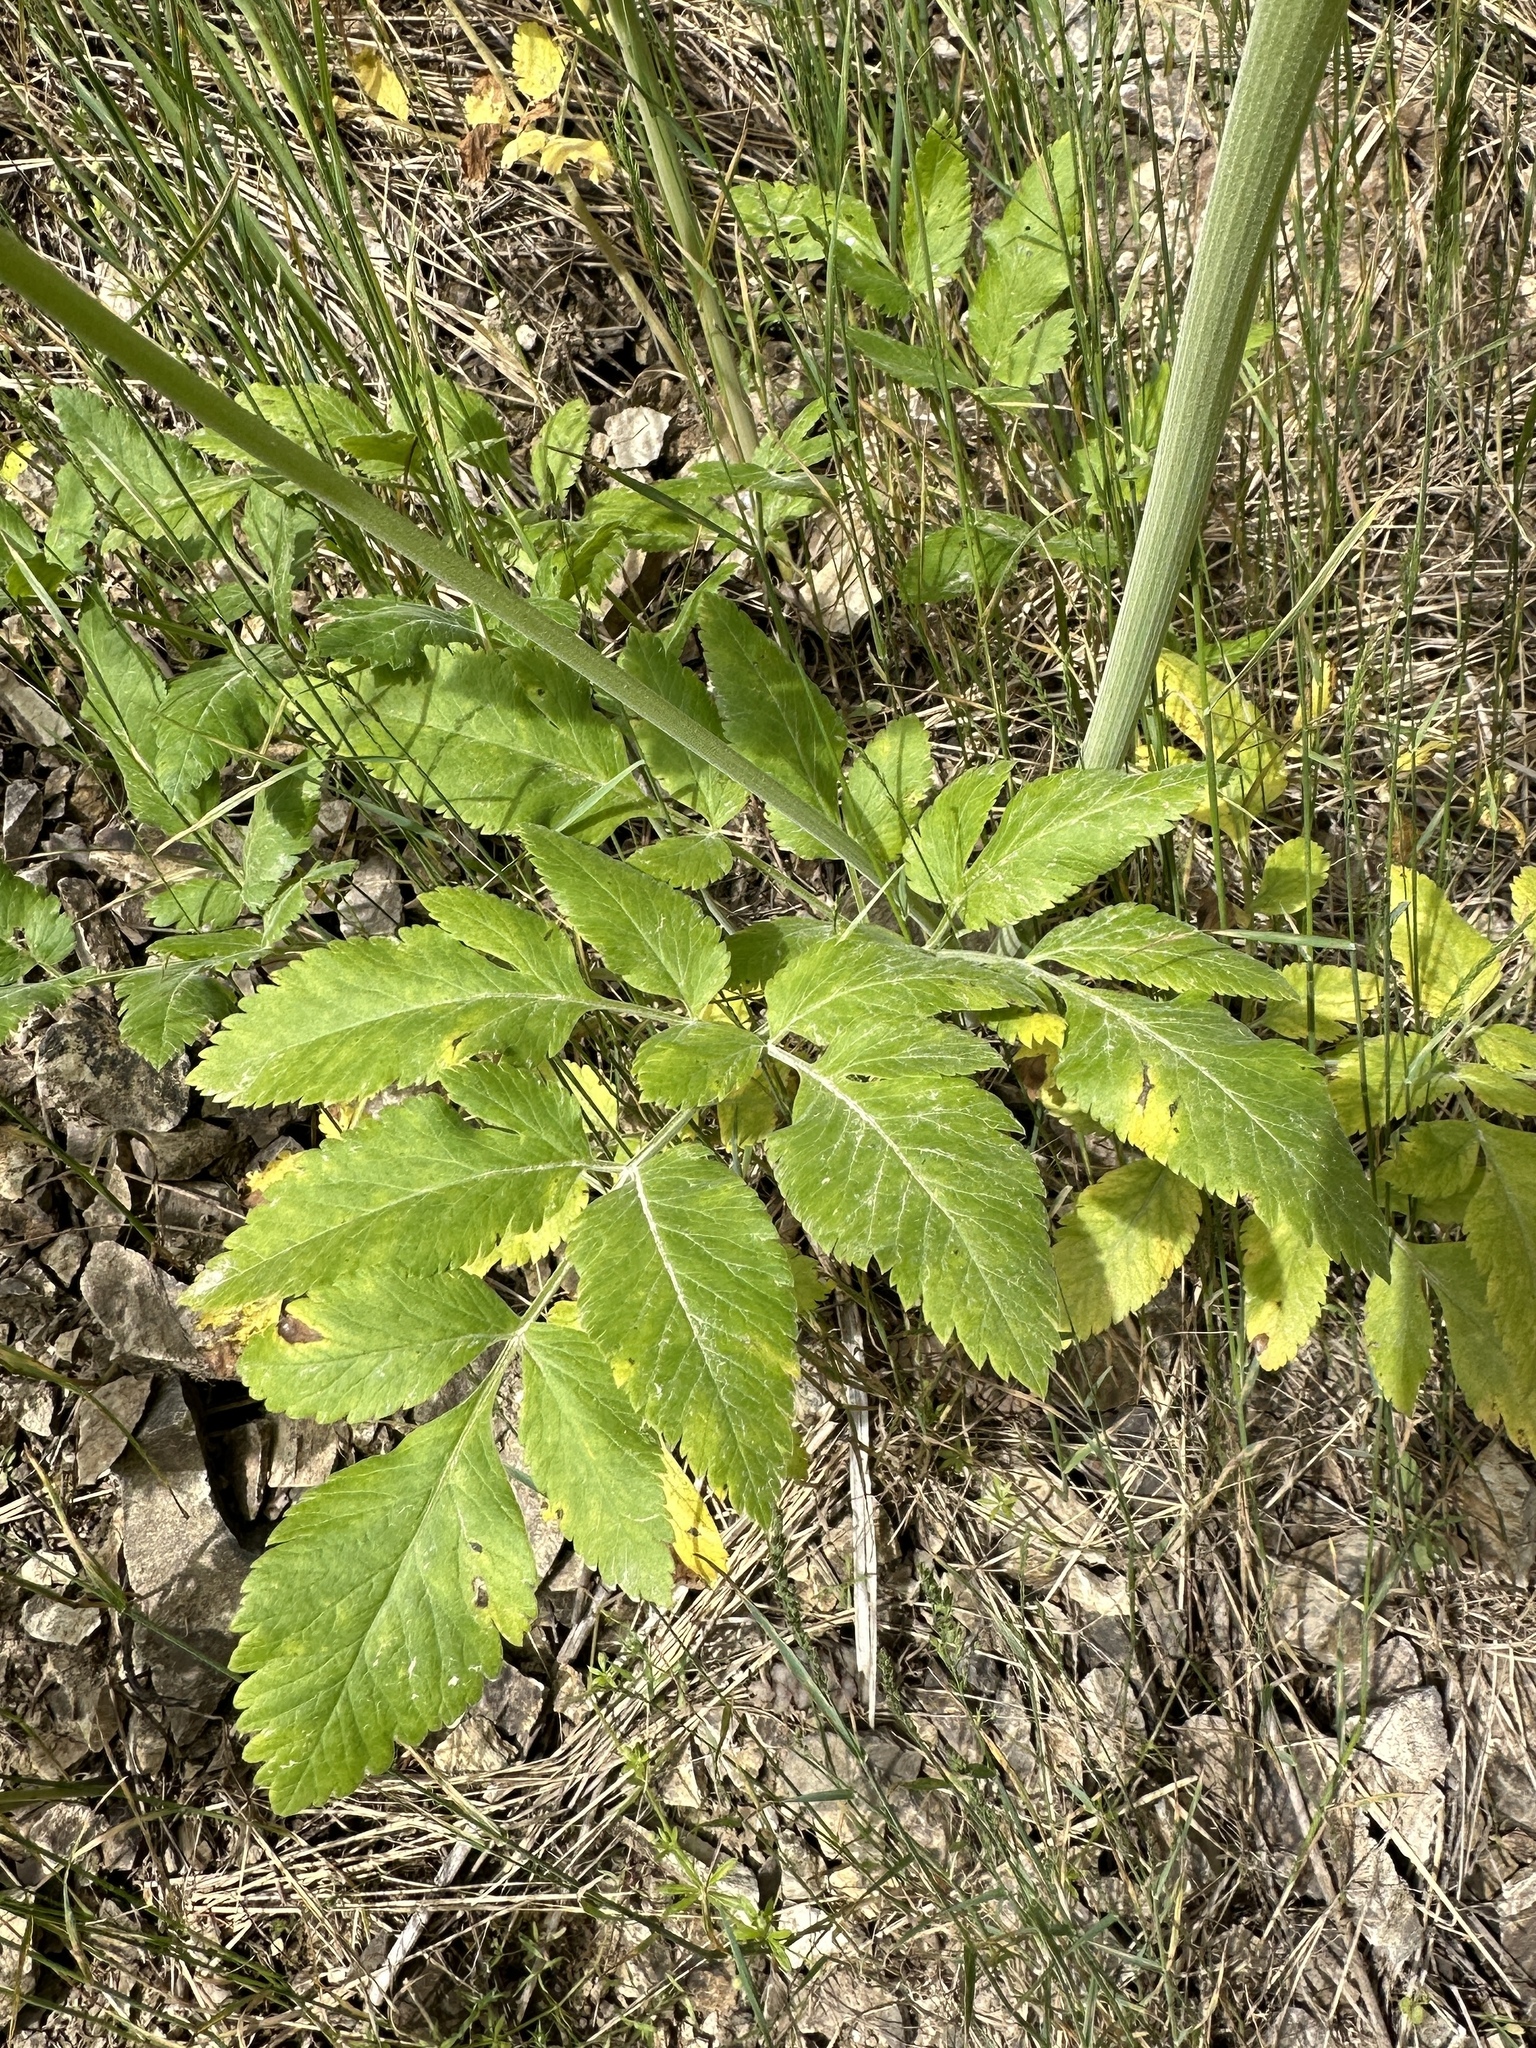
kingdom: Plantae
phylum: Tracheophyta
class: Magnoliopsida
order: Apiales
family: Apiaceae
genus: Osmorhiza
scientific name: Osmorhiza occidentalis
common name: Western sweet cicely
